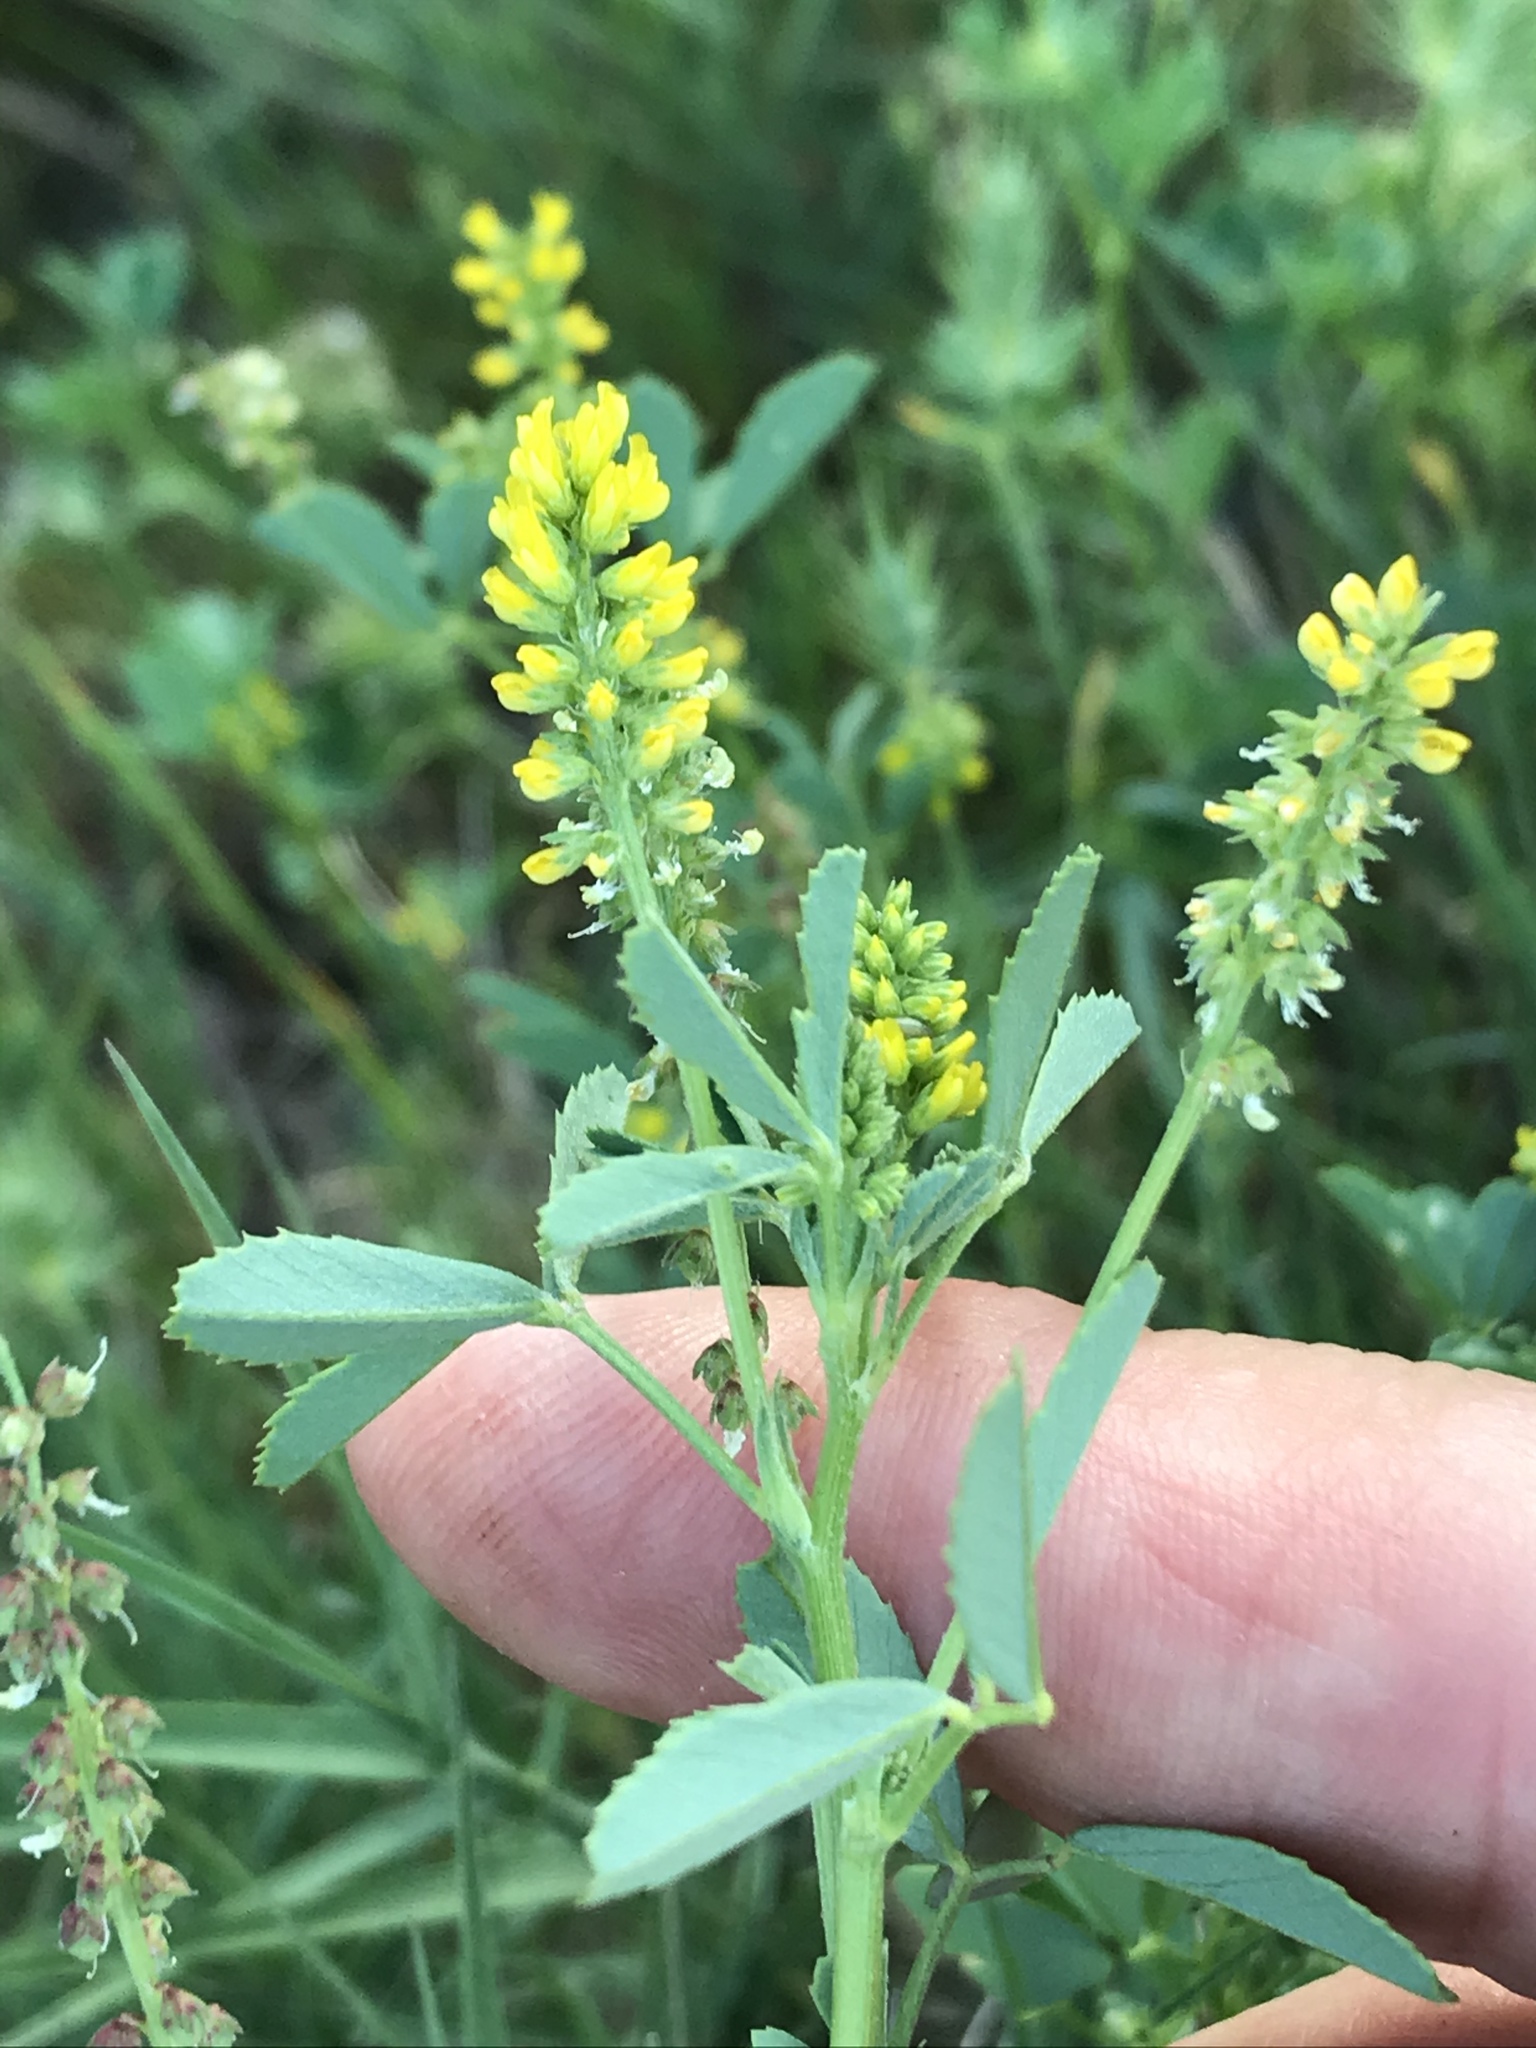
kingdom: Plantae
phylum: Tracheophyta
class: Magnoliopsida
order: Fabales
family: Fabaceae
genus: Melilotus
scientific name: Melilotus indicus
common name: Small melilot
